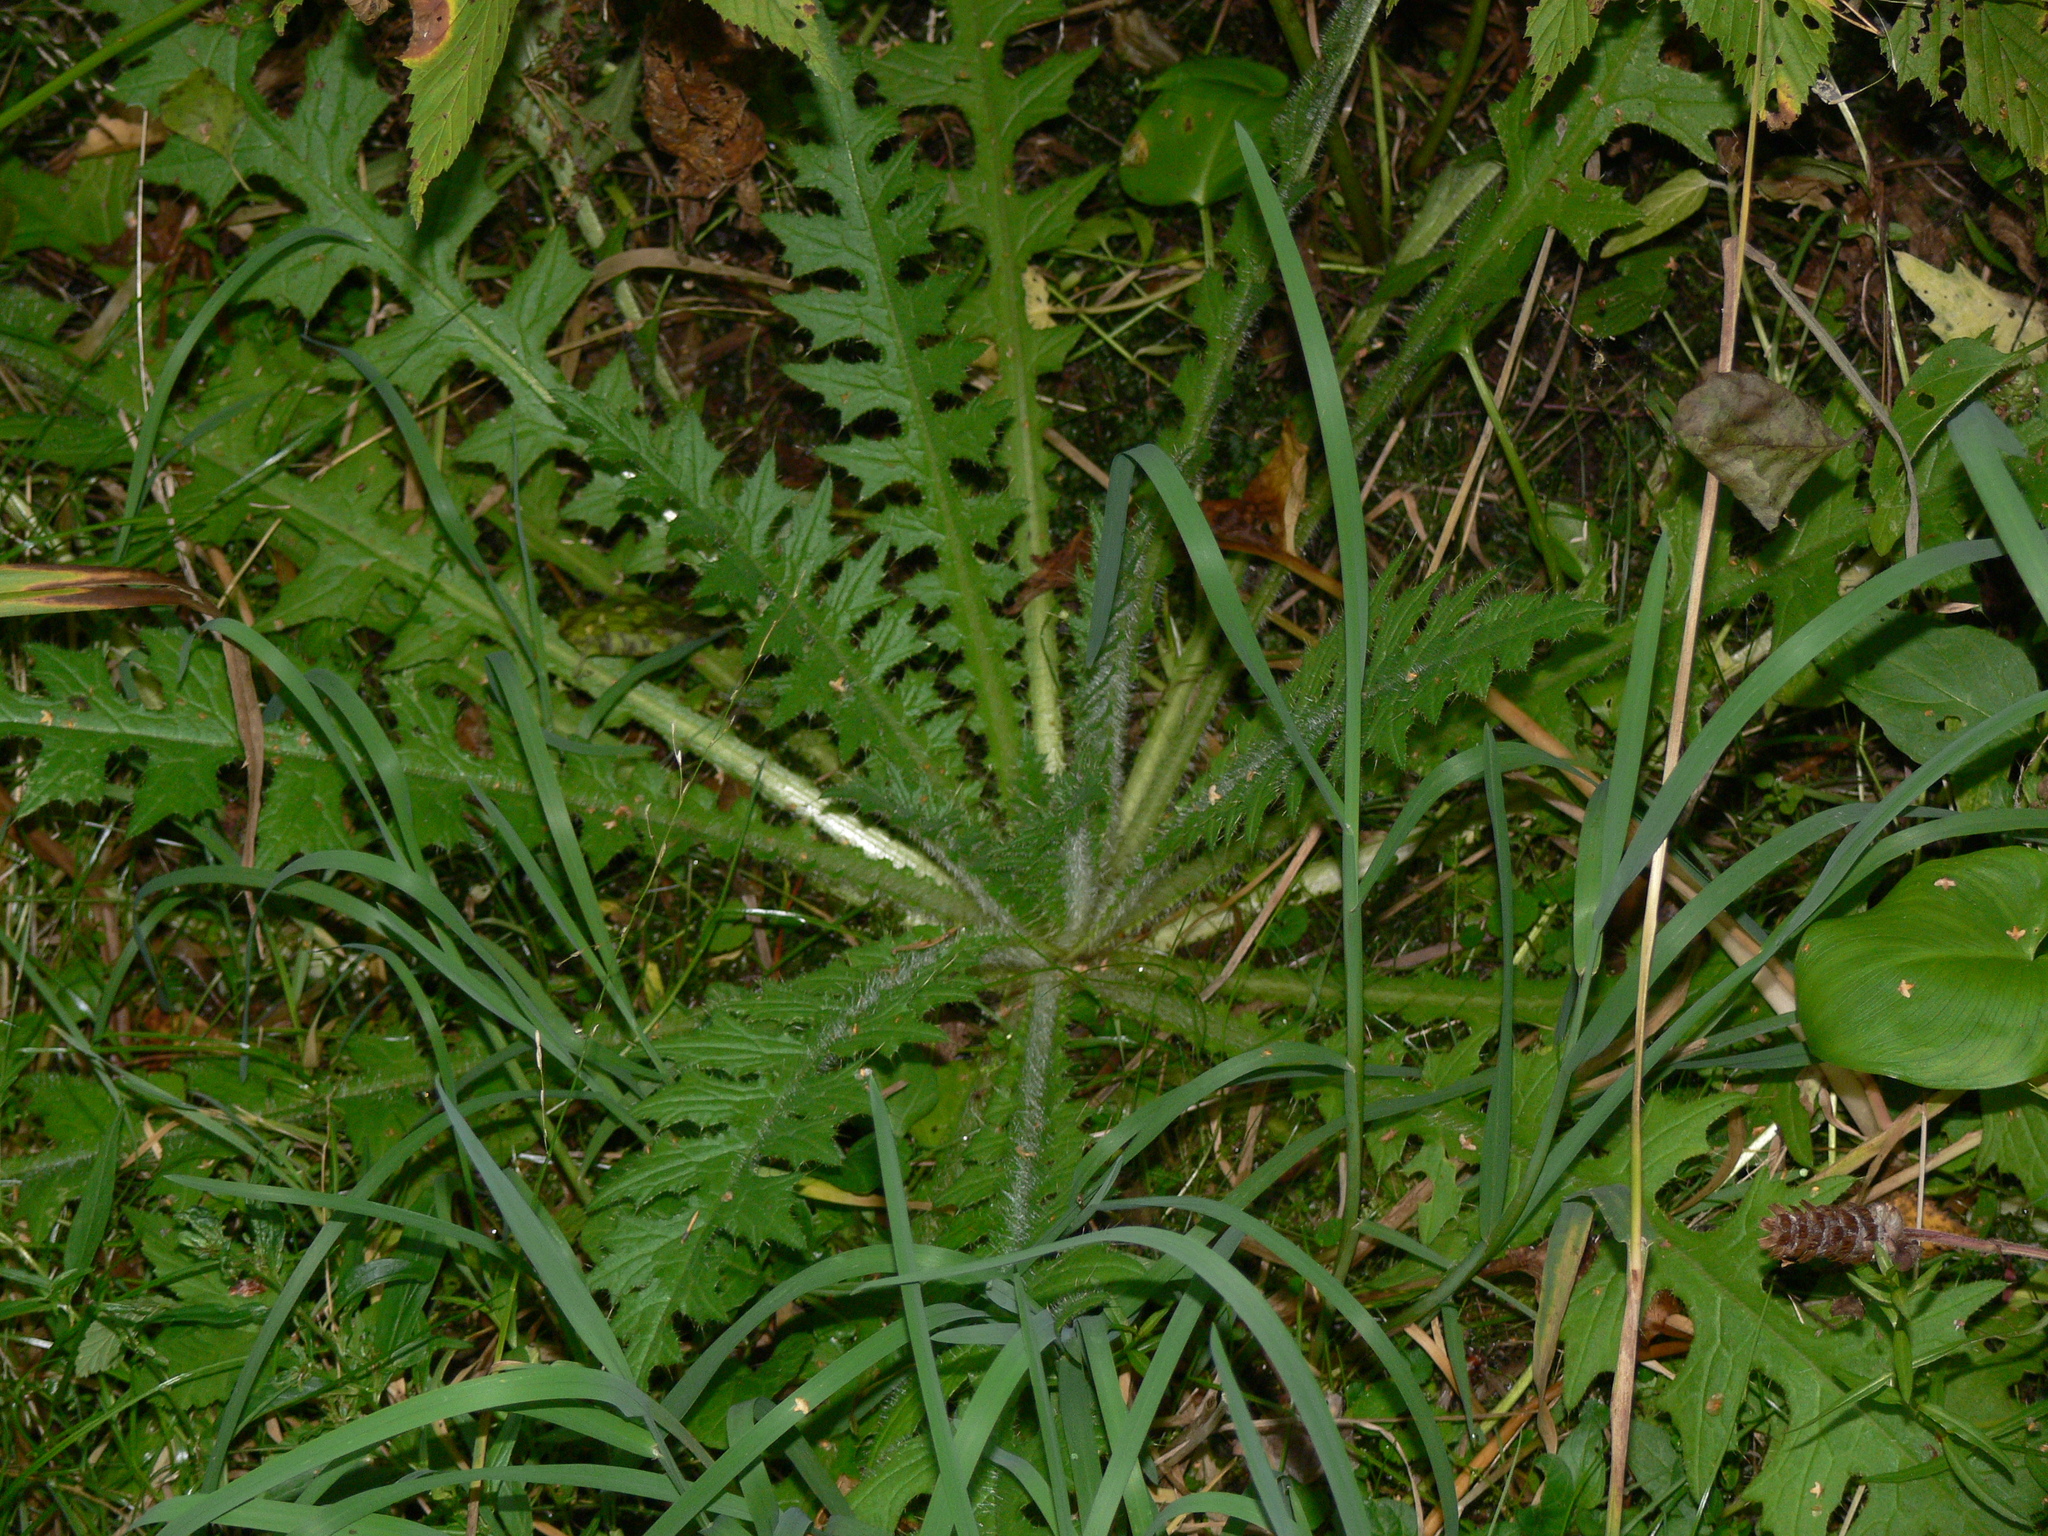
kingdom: Plantae
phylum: Tracheophyta
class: Magnoliopsida
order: Asterales
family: Asteraceae
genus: Cirsium
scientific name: Cirsium palustre
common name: Marsh thistle
